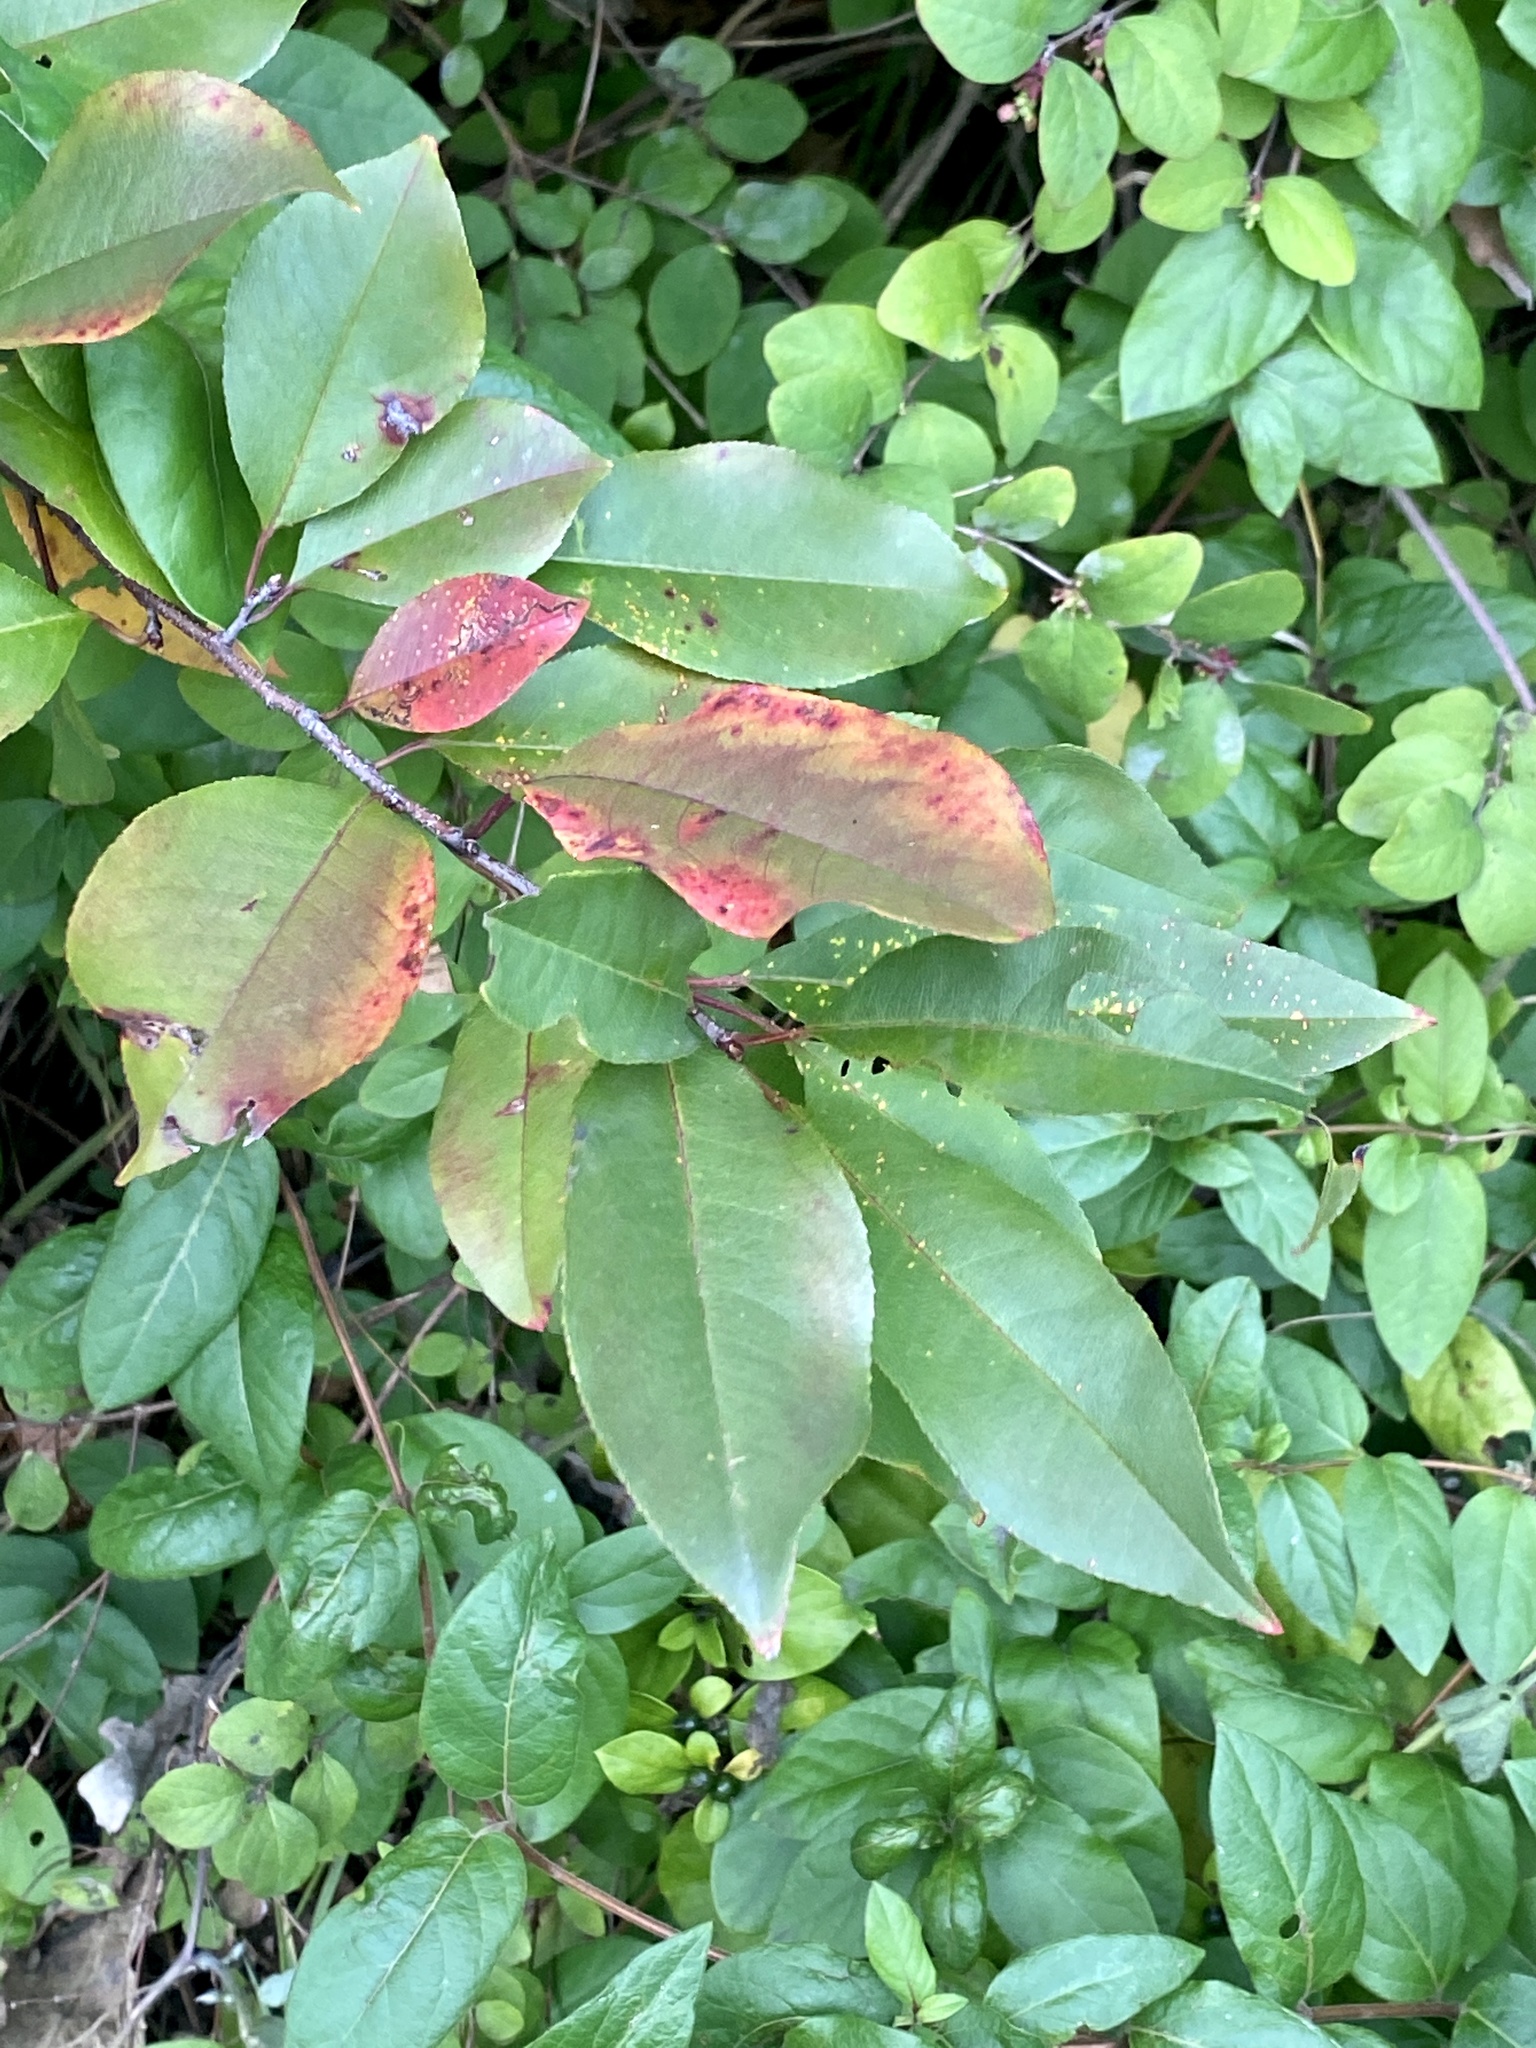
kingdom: Plantae
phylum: Tracheophyta
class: Magnoliopsida
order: Rosales
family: Rosaceae
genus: Prunus
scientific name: Prunus serotina
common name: Black cherry
